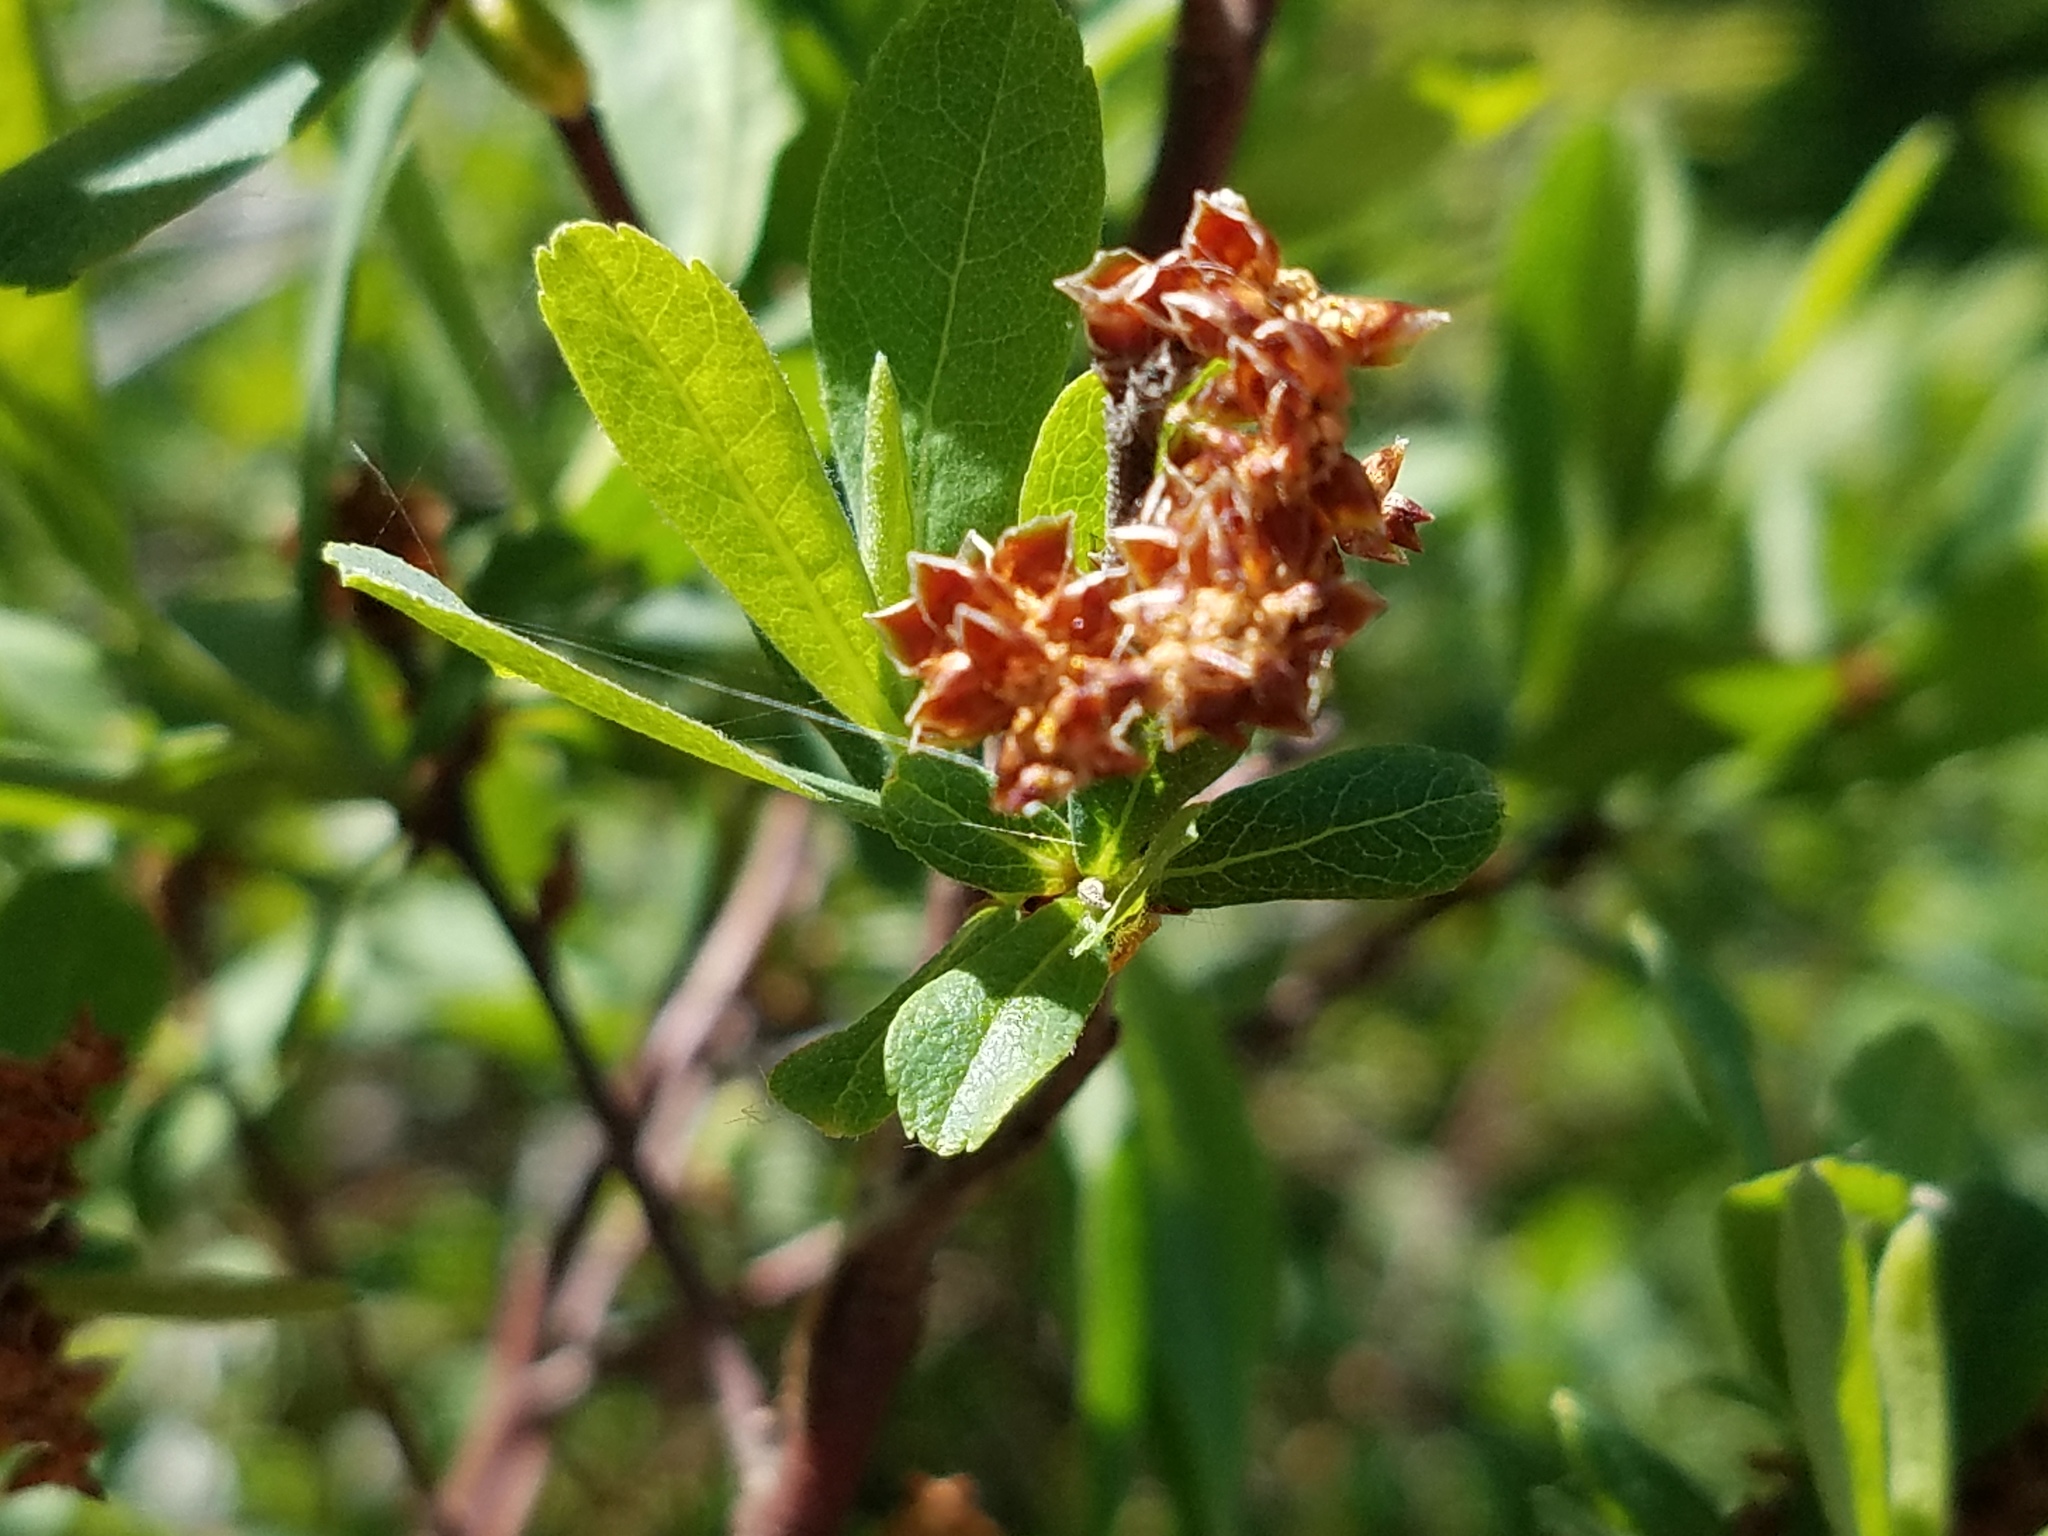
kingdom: Plantae
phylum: Tracheophyta
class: Magnoliopsida
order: Fagales
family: Myricaceae
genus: Myrica
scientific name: Myrica gale
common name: Sweet gale
